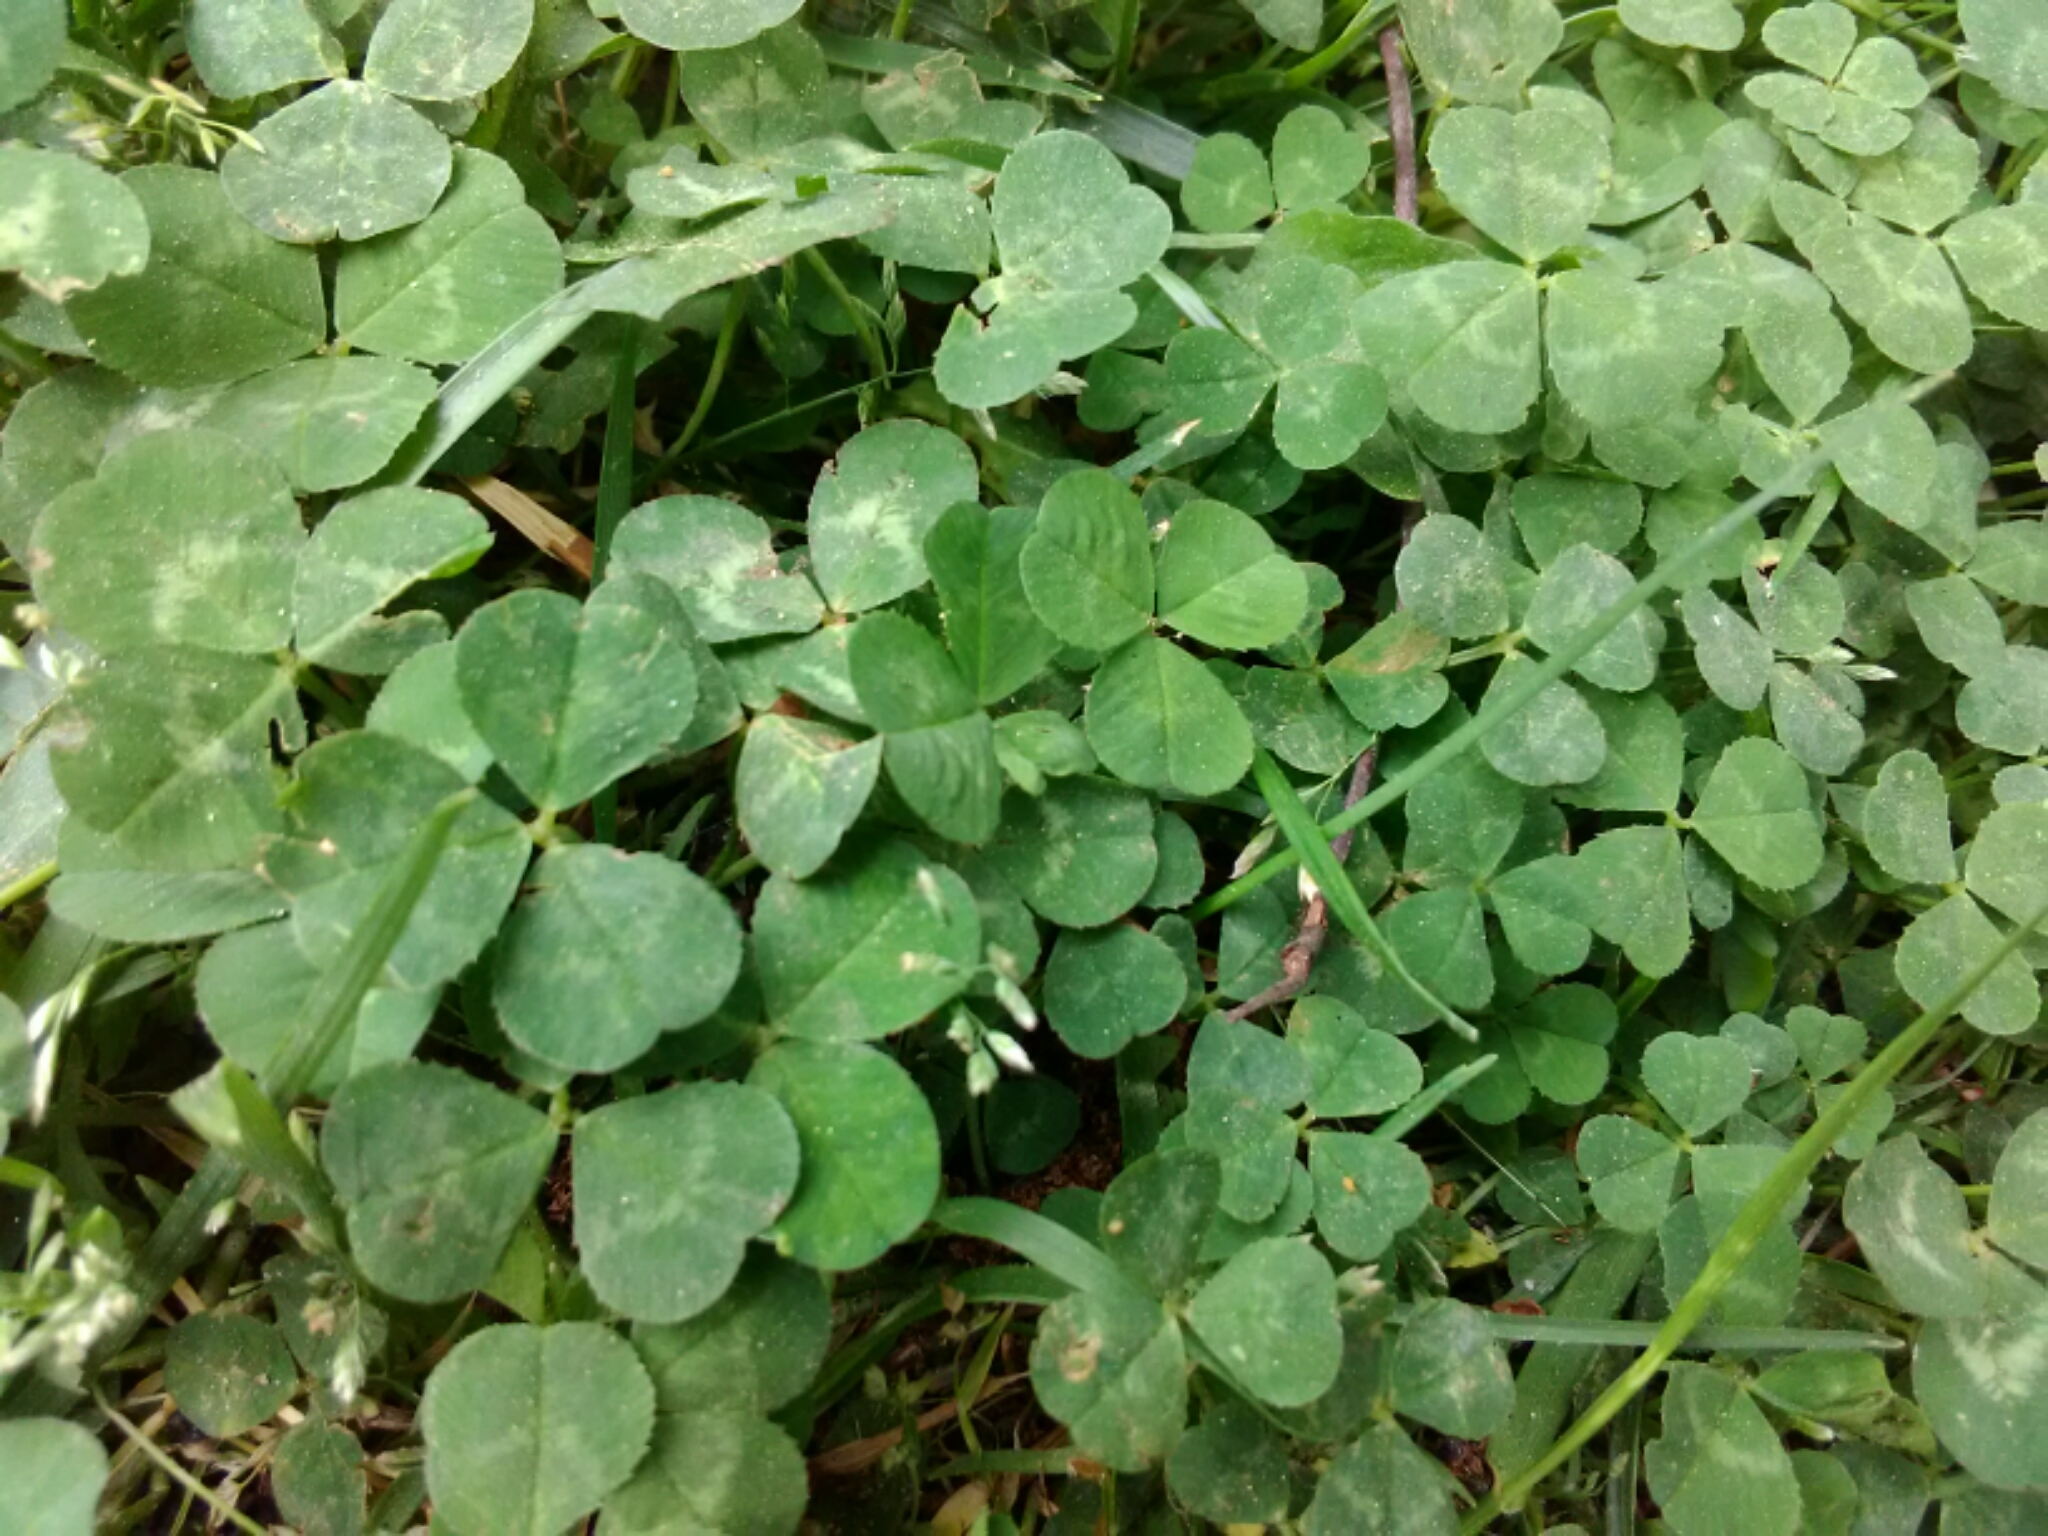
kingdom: Plantae
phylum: Tracheophyta
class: Magnoliopsida
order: Fabales
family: Fabaceae
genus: Trifolium
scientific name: Trifolium repens
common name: White clover
